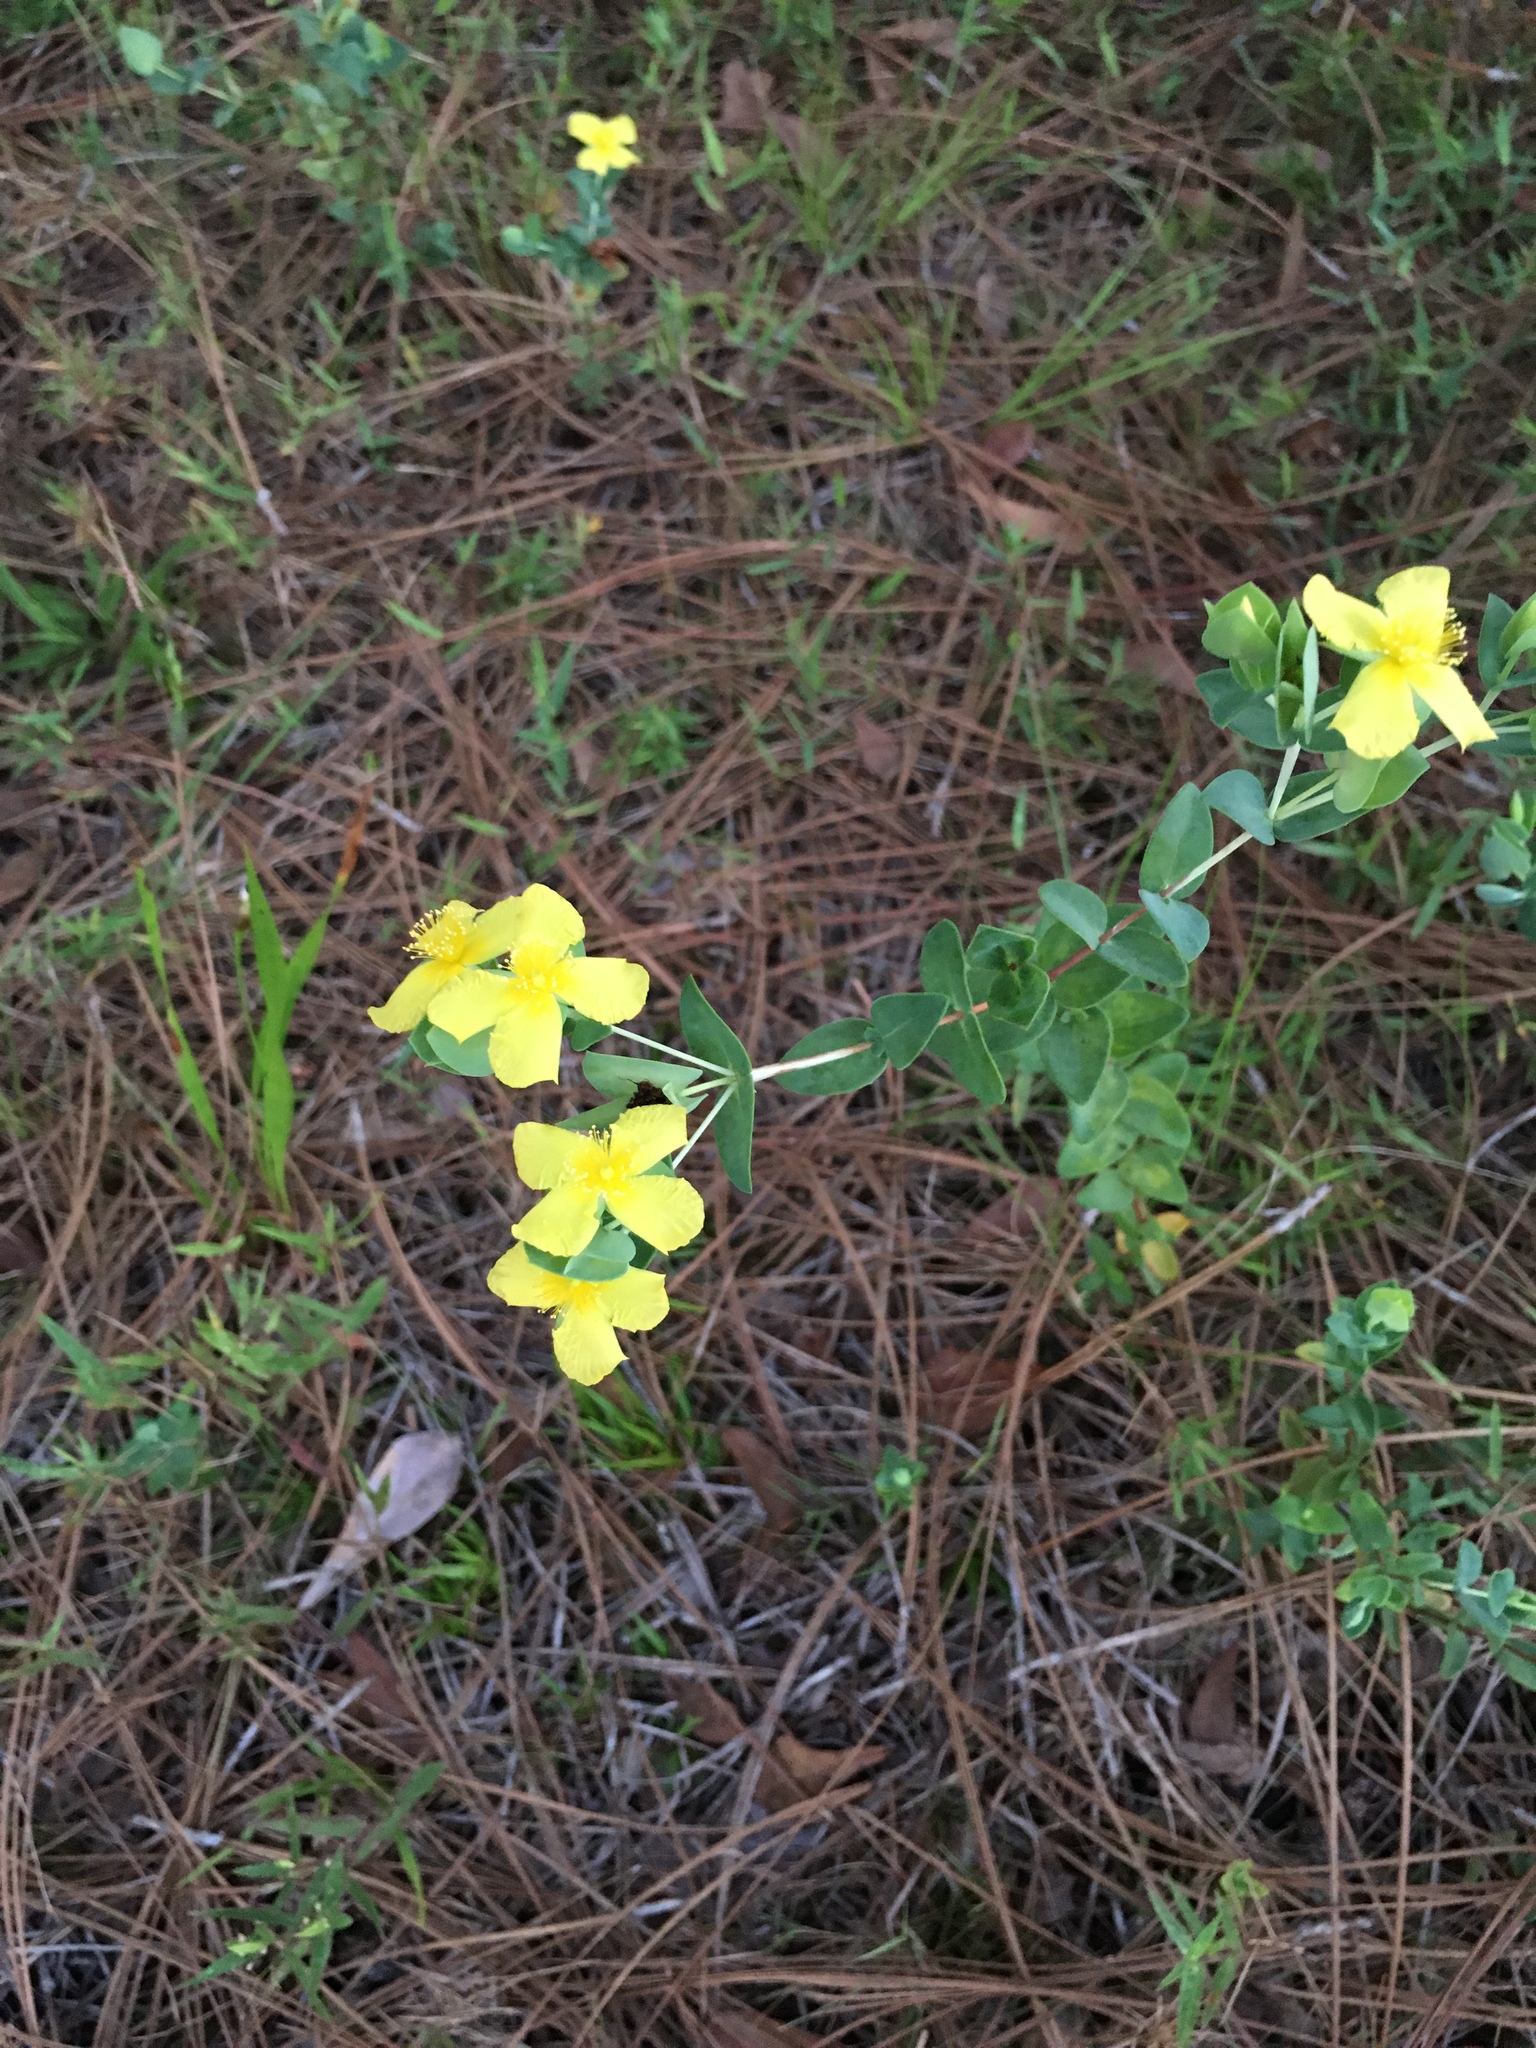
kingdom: Plantae
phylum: Tracheophyta
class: Magnoliopsida
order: Malpighiales
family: Hypericaceae
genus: Hypericum
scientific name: Hypericum tetrapetalum
